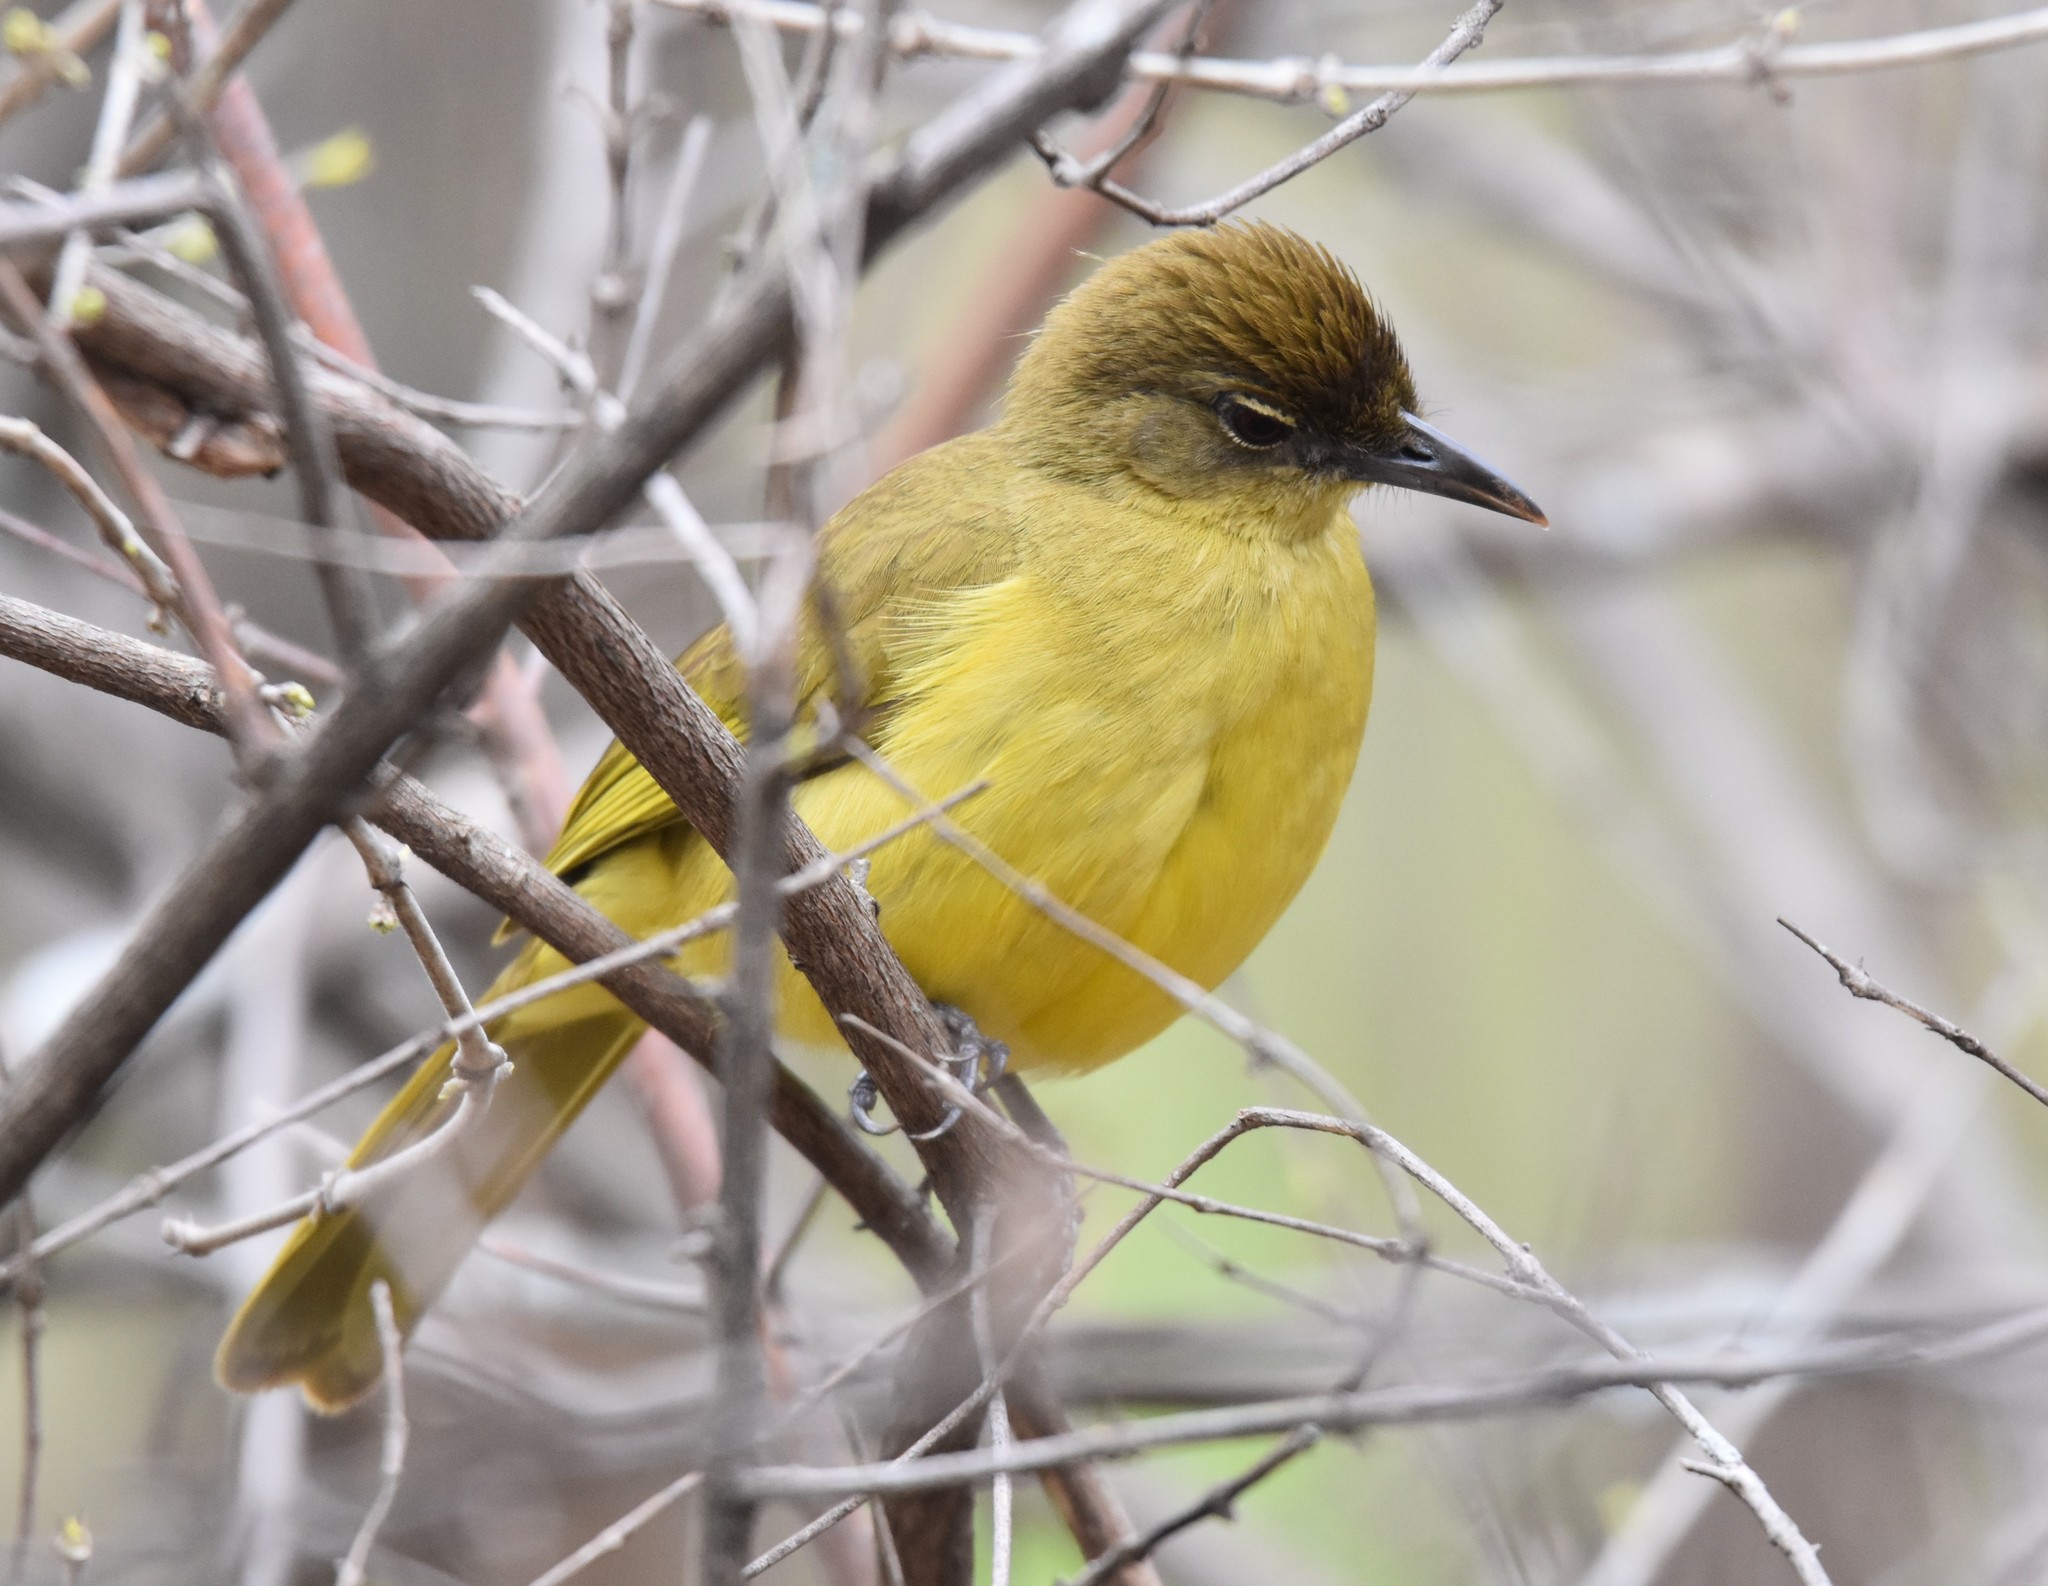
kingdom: Animalia
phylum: Chordata
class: Aves
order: Passeriformes
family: Pycnonotidae
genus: Chlorocichla
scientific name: Chlorocichla flaviventris
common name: Yellow-bellied greenbul
